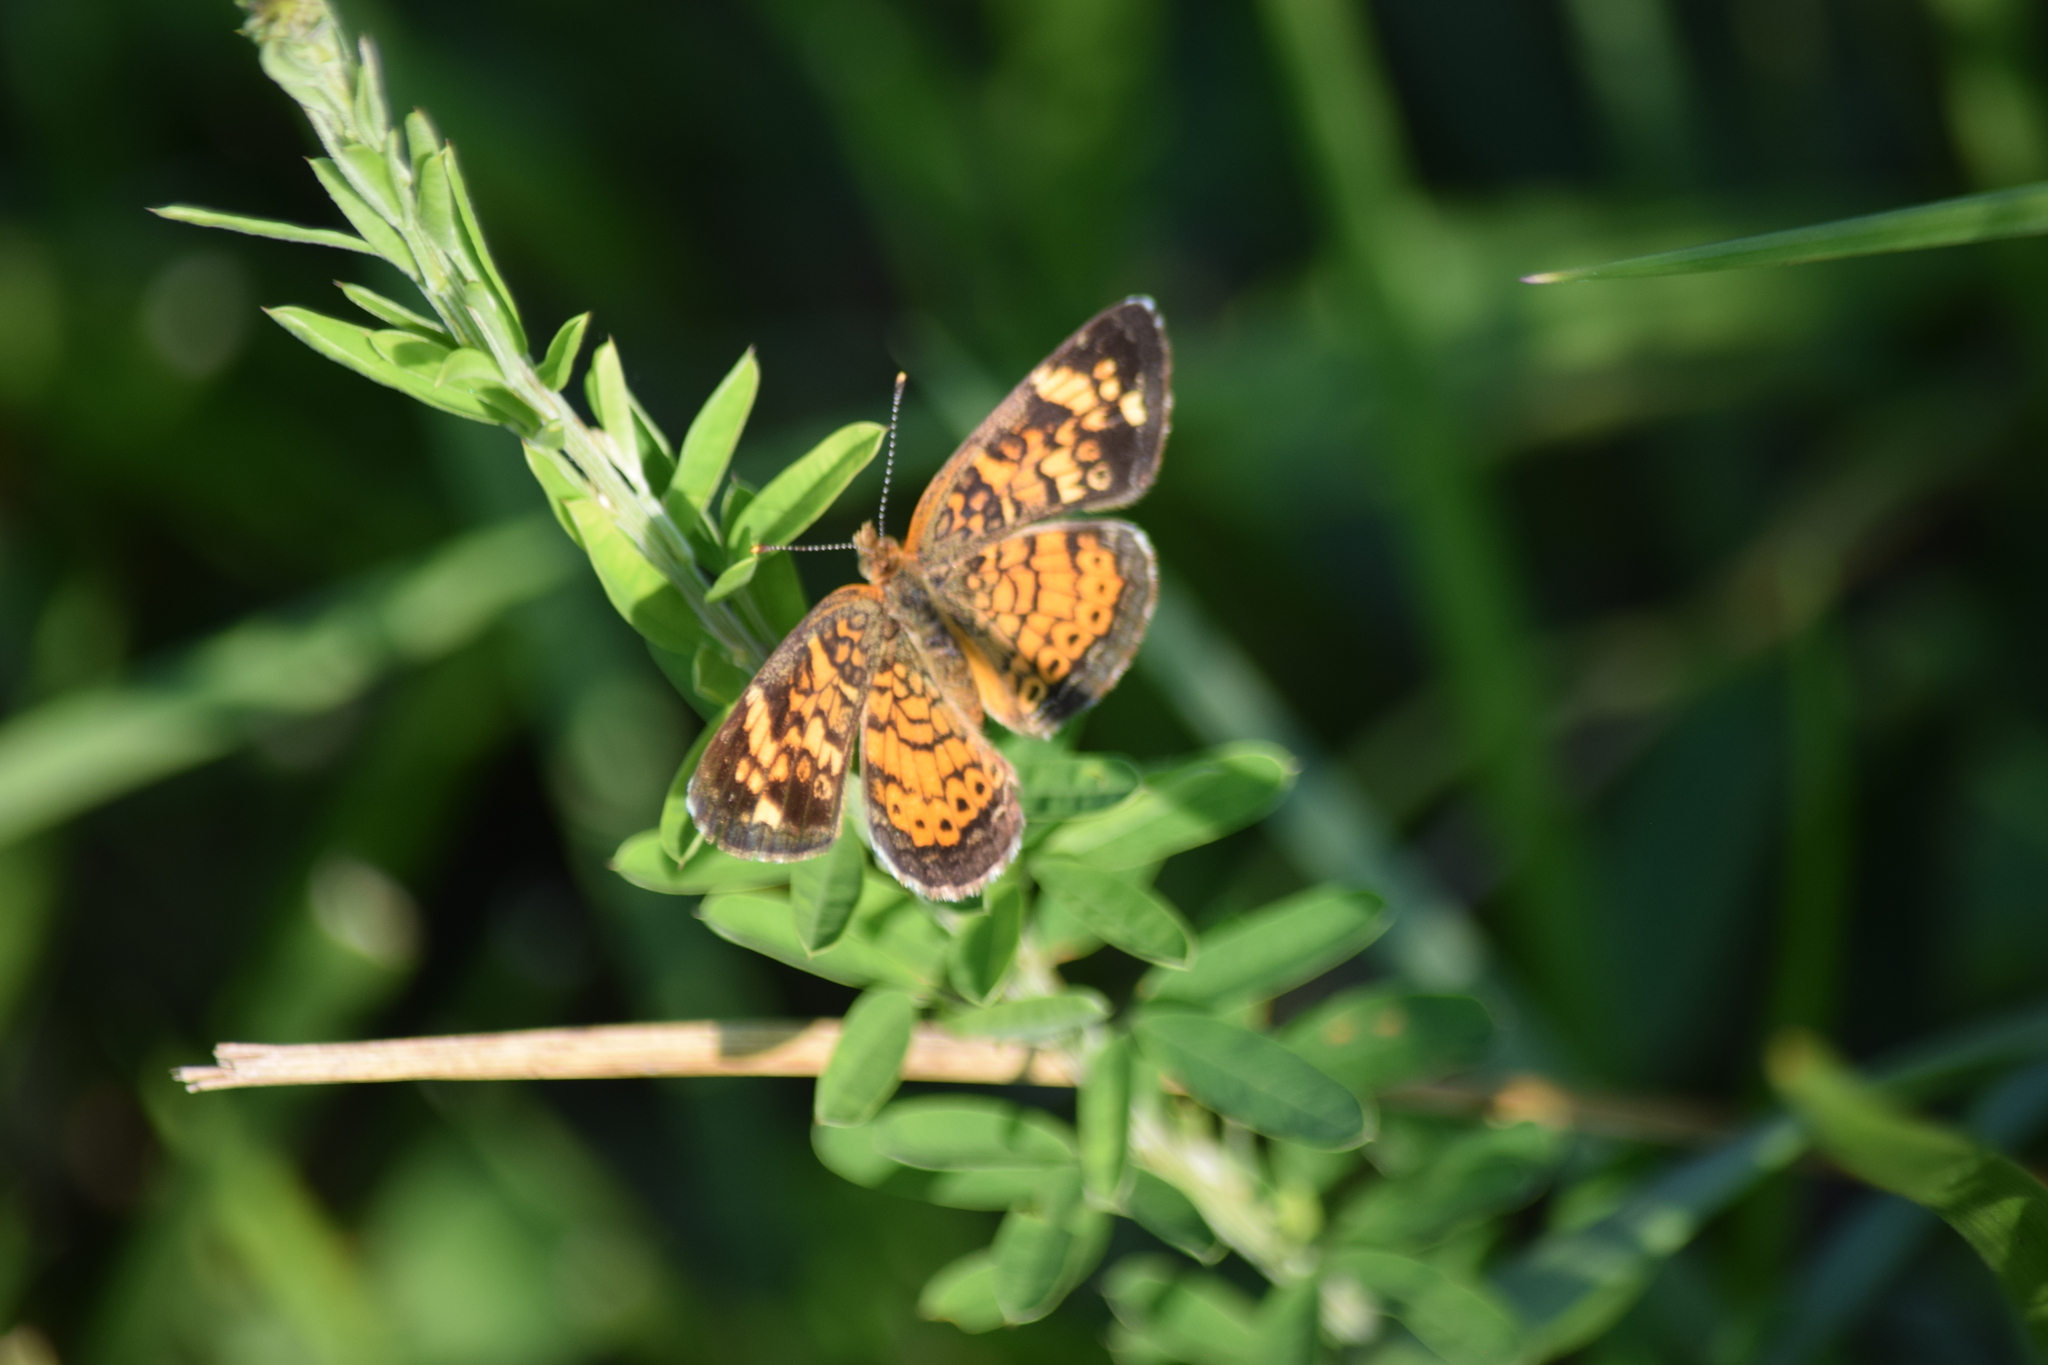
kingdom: Animalia
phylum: Arthropoda
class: Insecta
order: Lepidoptera
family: Nymphalidae
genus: Phyciodes
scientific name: Phyciodes tharos
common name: Pearl crescent
